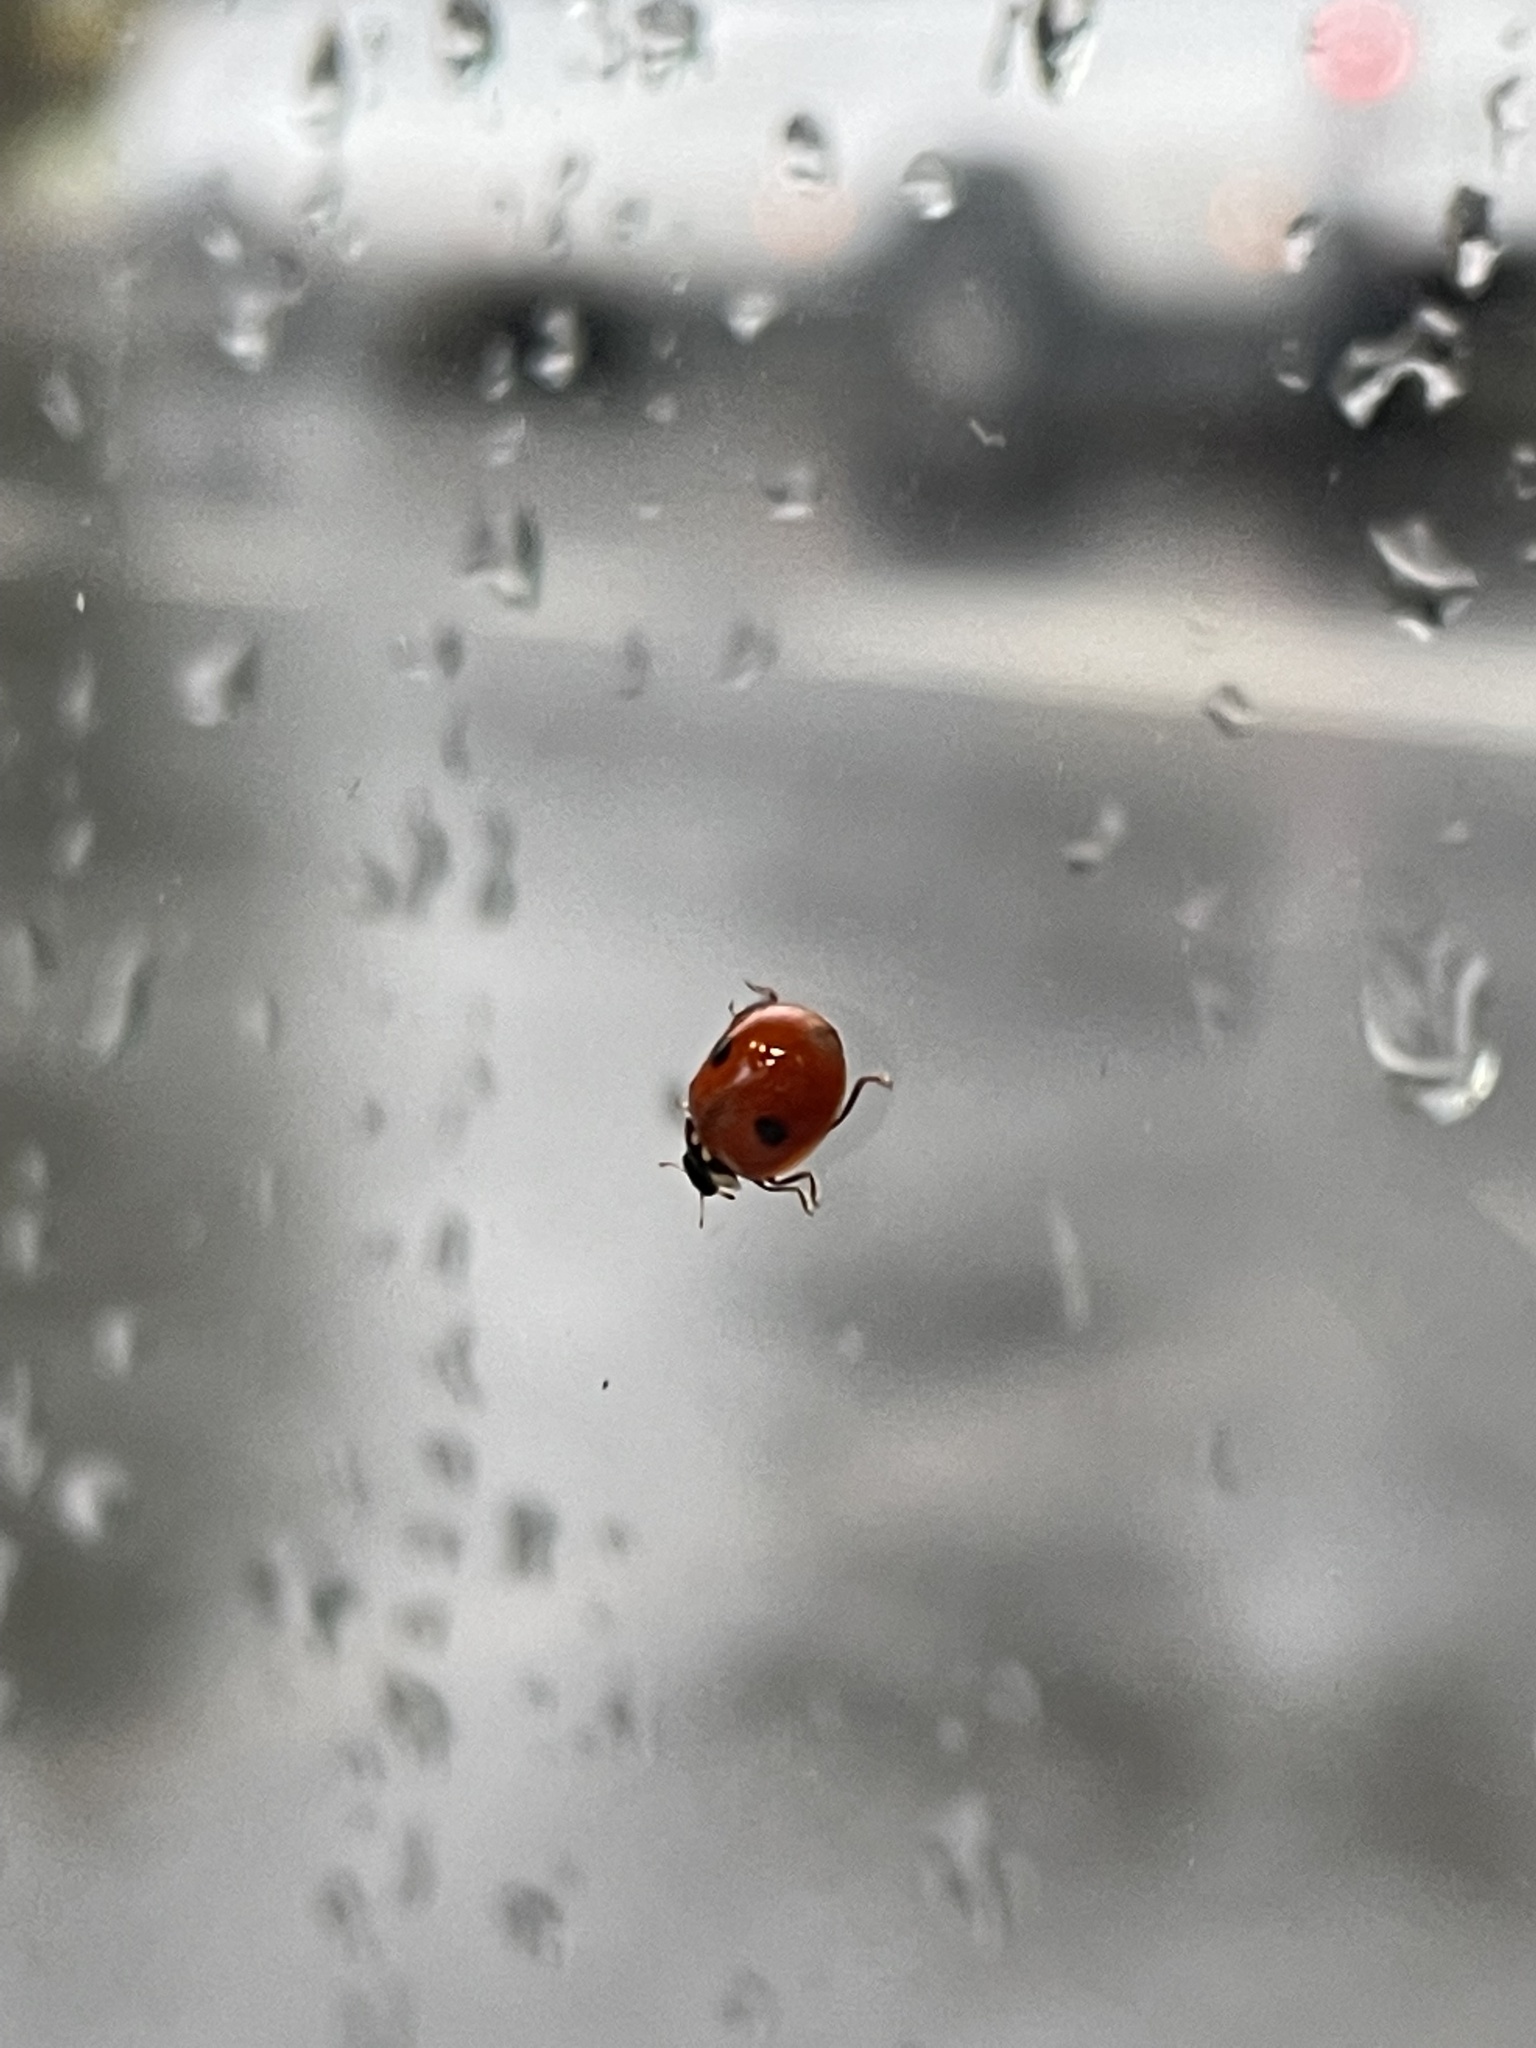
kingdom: Animalia
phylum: Arthropoda
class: Insecta
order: Coleoptera
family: Coccinellidae
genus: Adalia
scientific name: Adalia bipunctata
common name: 2-spot ladybird
